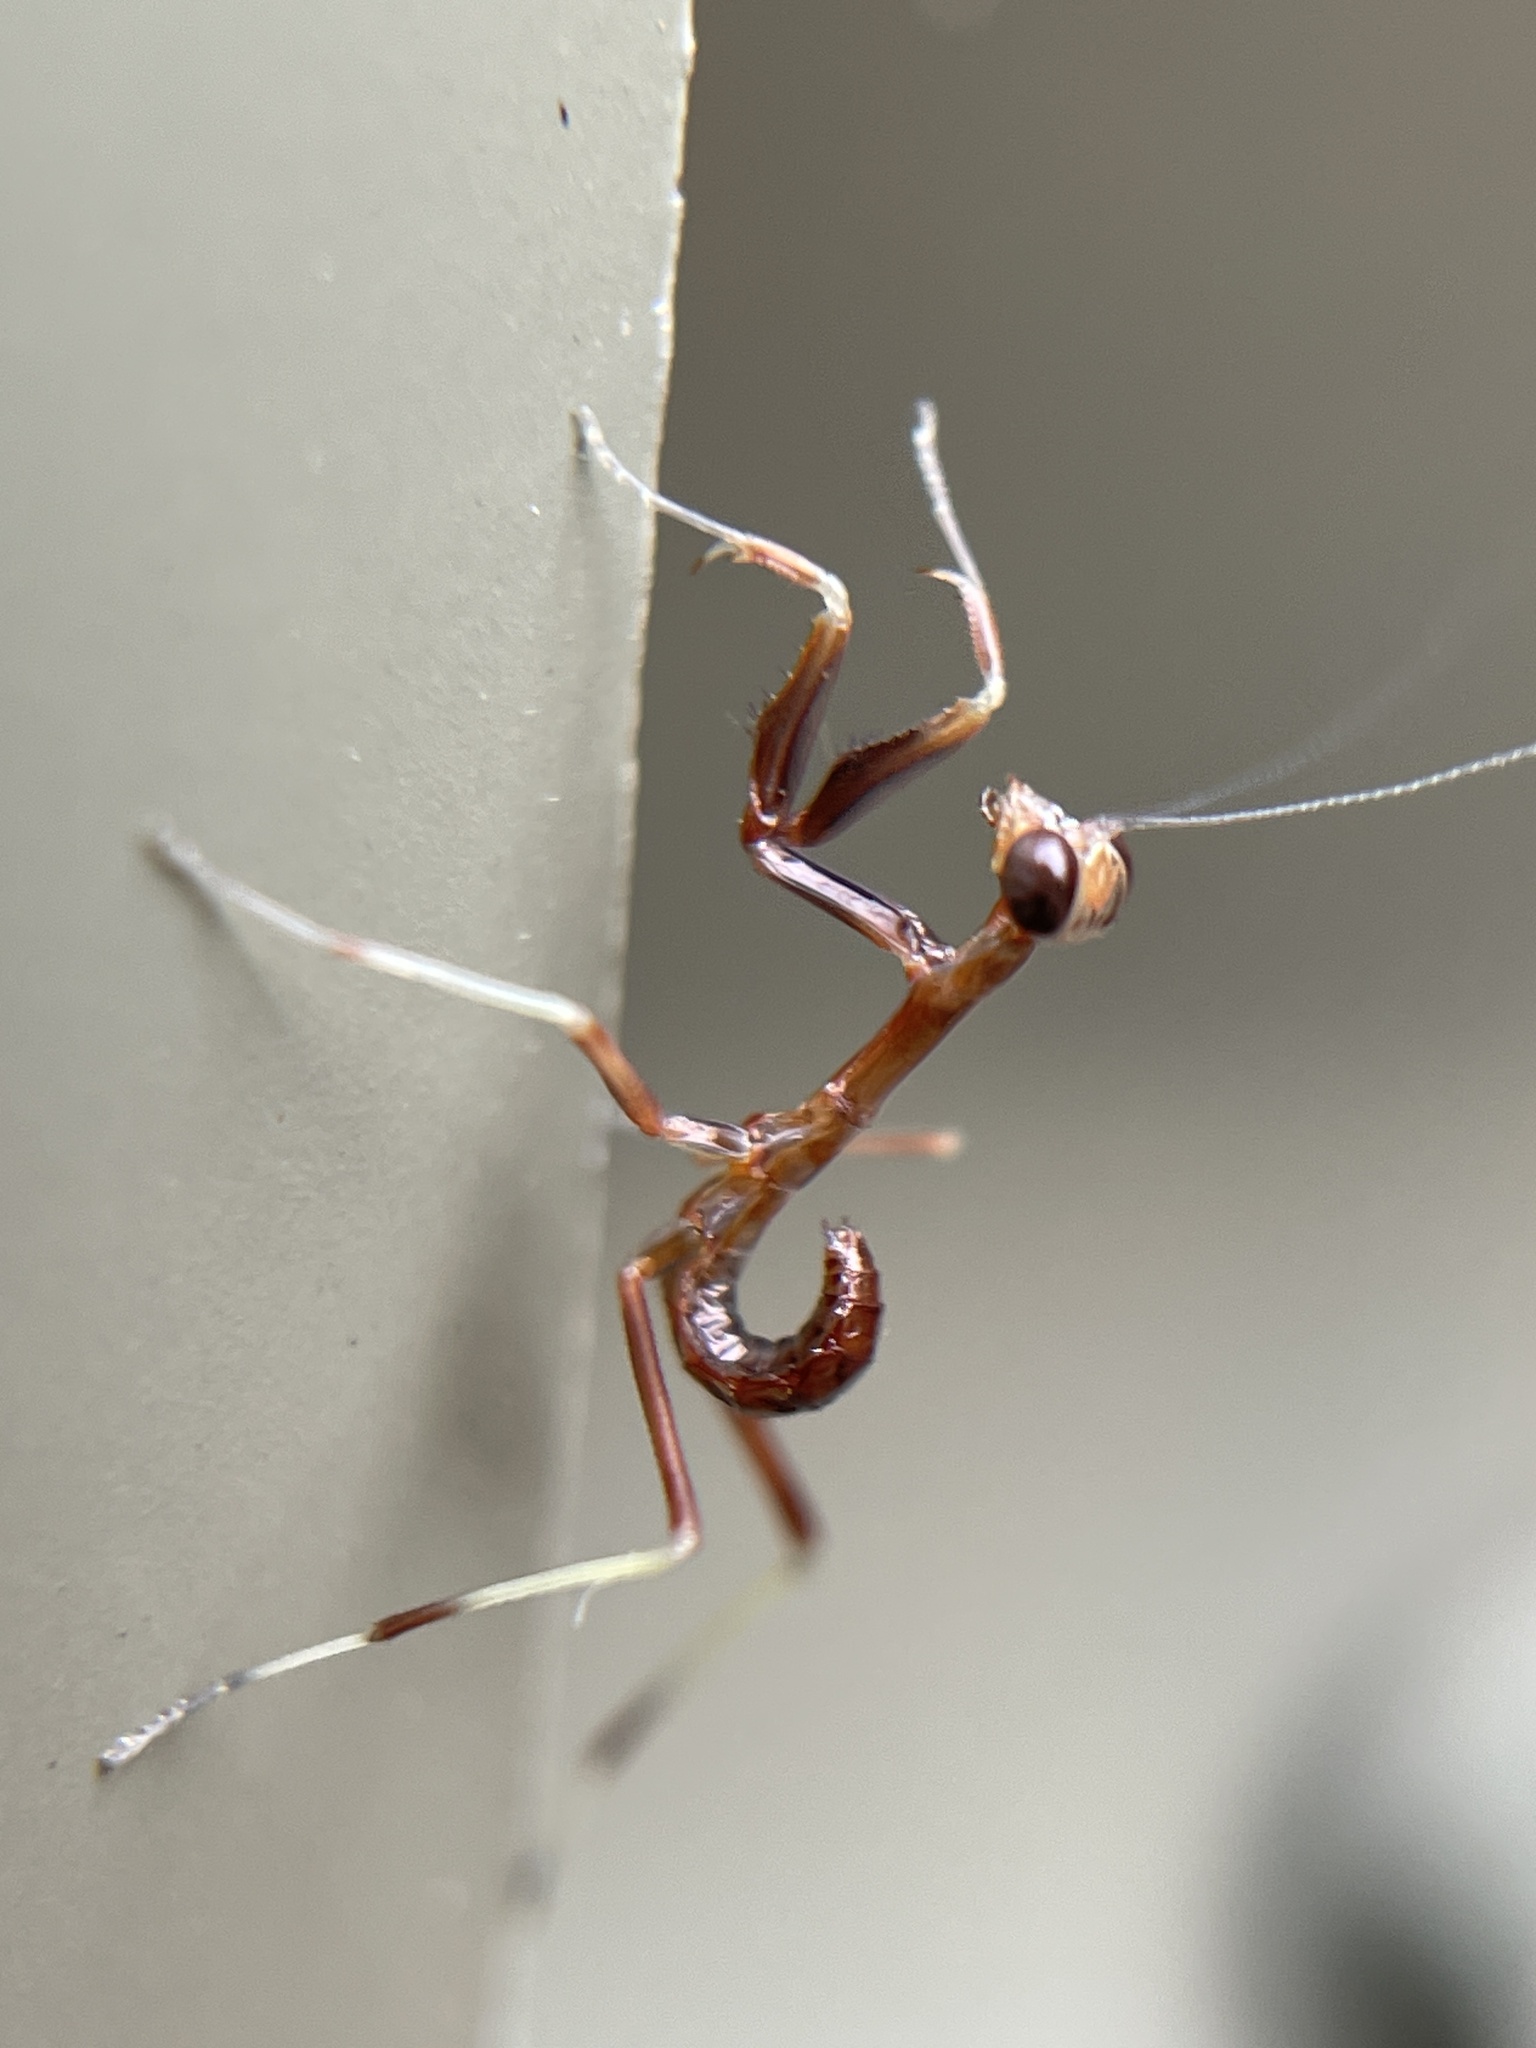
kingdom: Animalia
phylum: Arthropoda
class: Insecta
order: Mantodea
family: Mantidae
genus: Pseudomantis
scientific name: Pseudomantis albofimbriata
